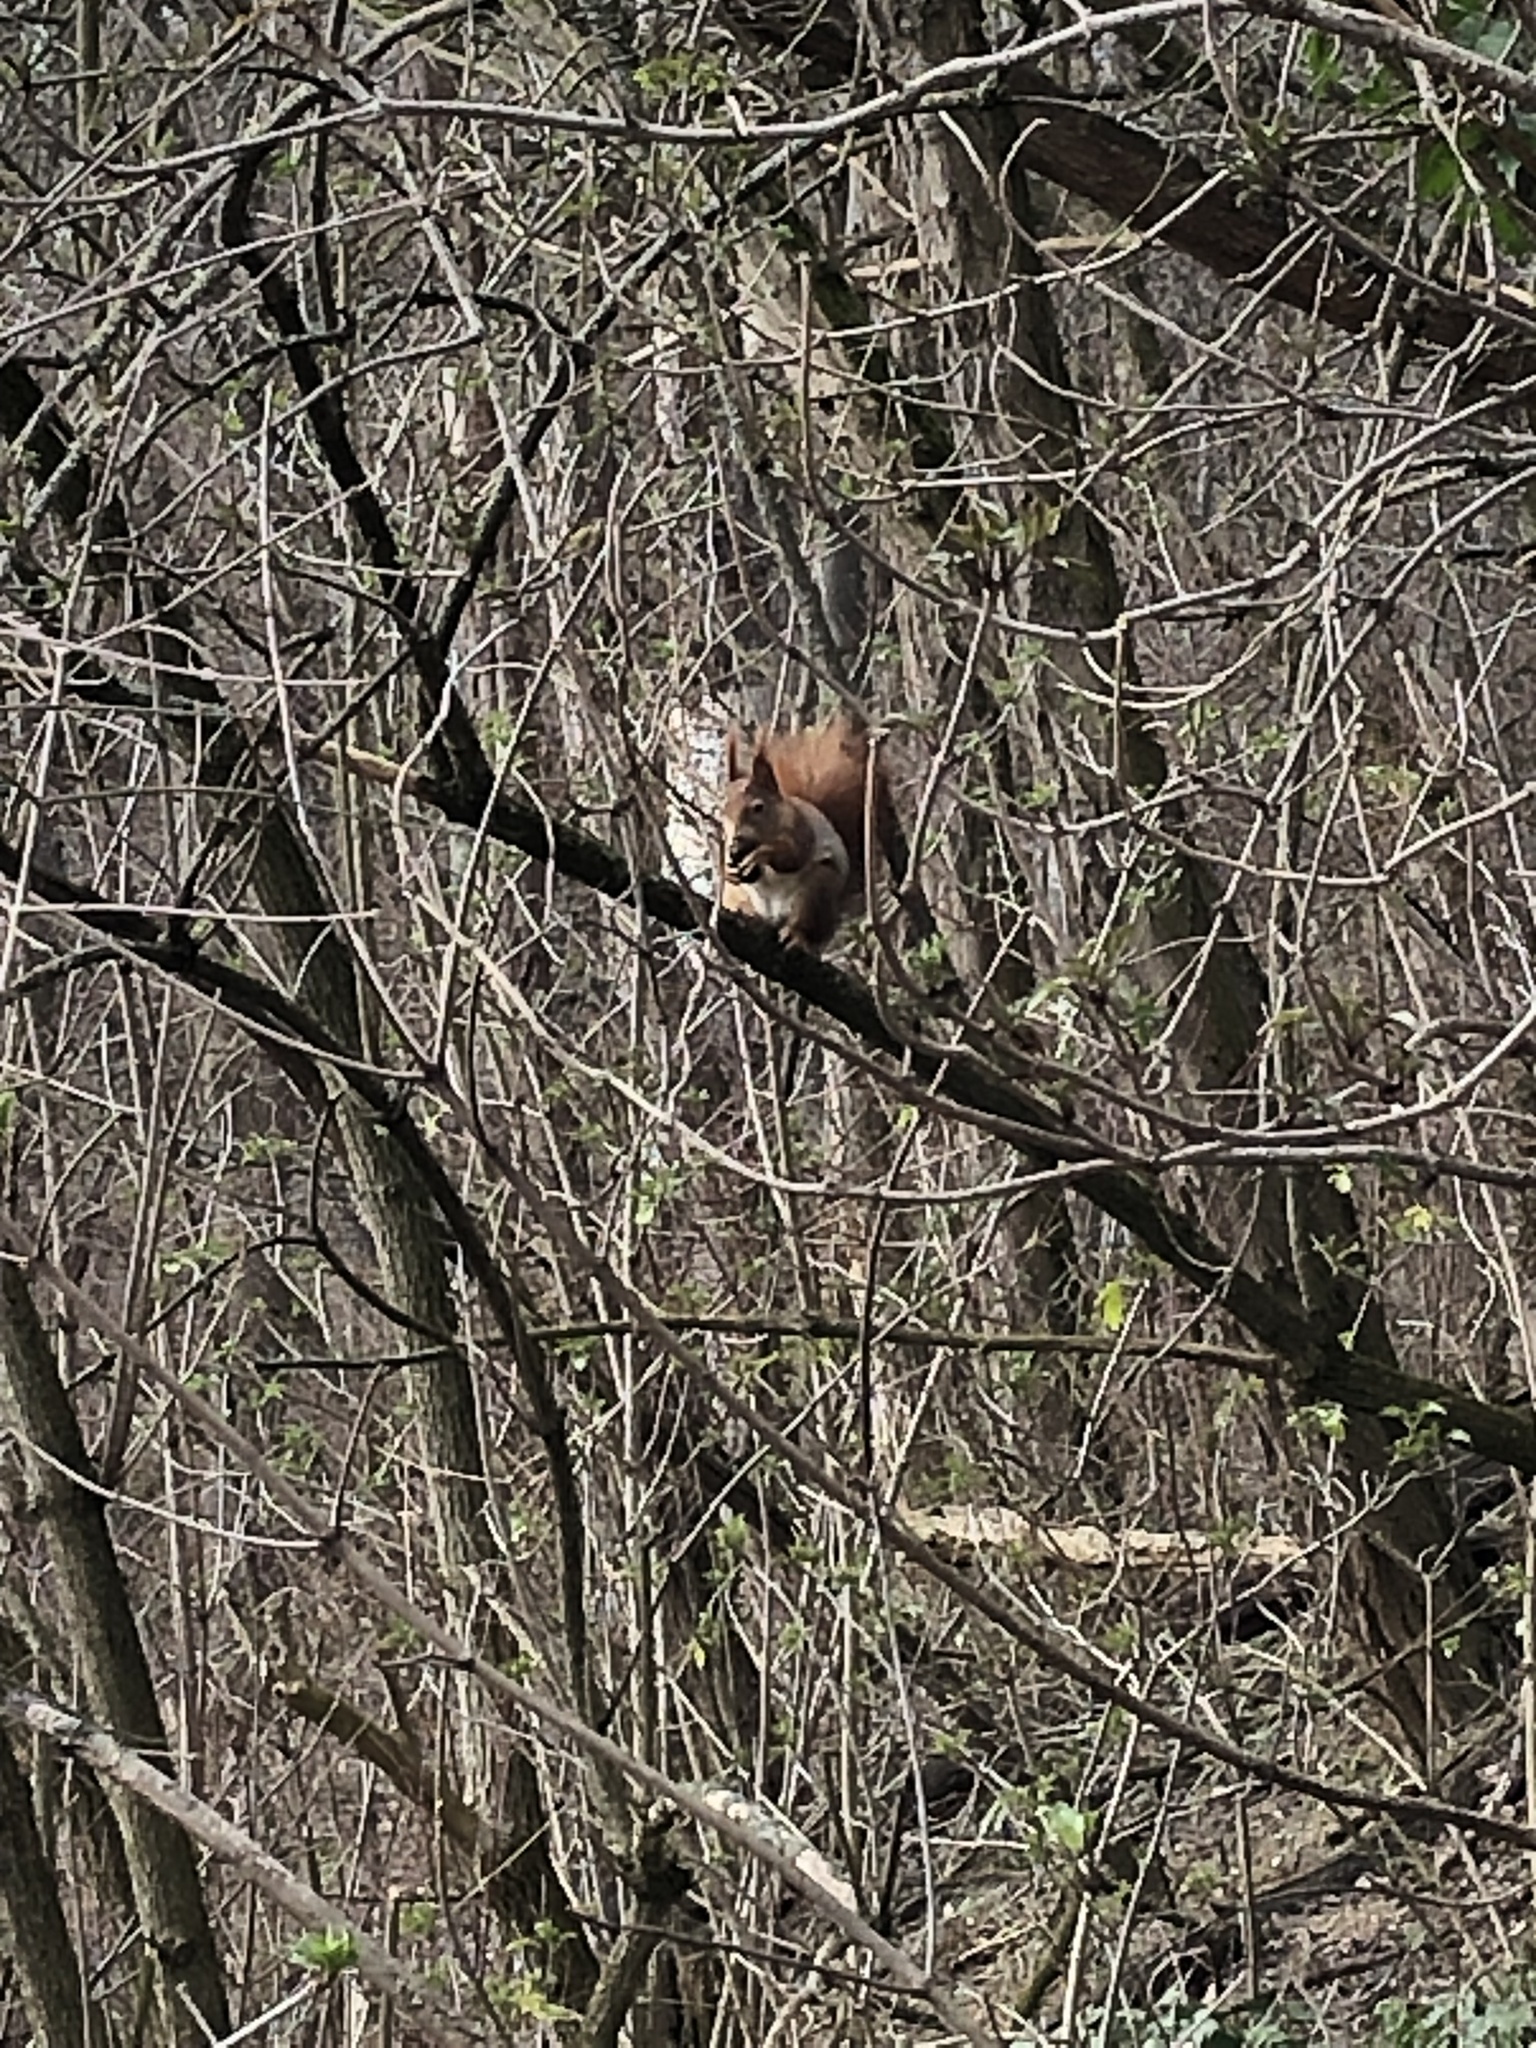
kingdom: Animalia
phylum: Chordata
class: Mammalia
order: Rodentia
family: Sciuridae
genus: Sciurus
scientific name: Sciurus vulgaris
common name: Eurasian red squirrel
